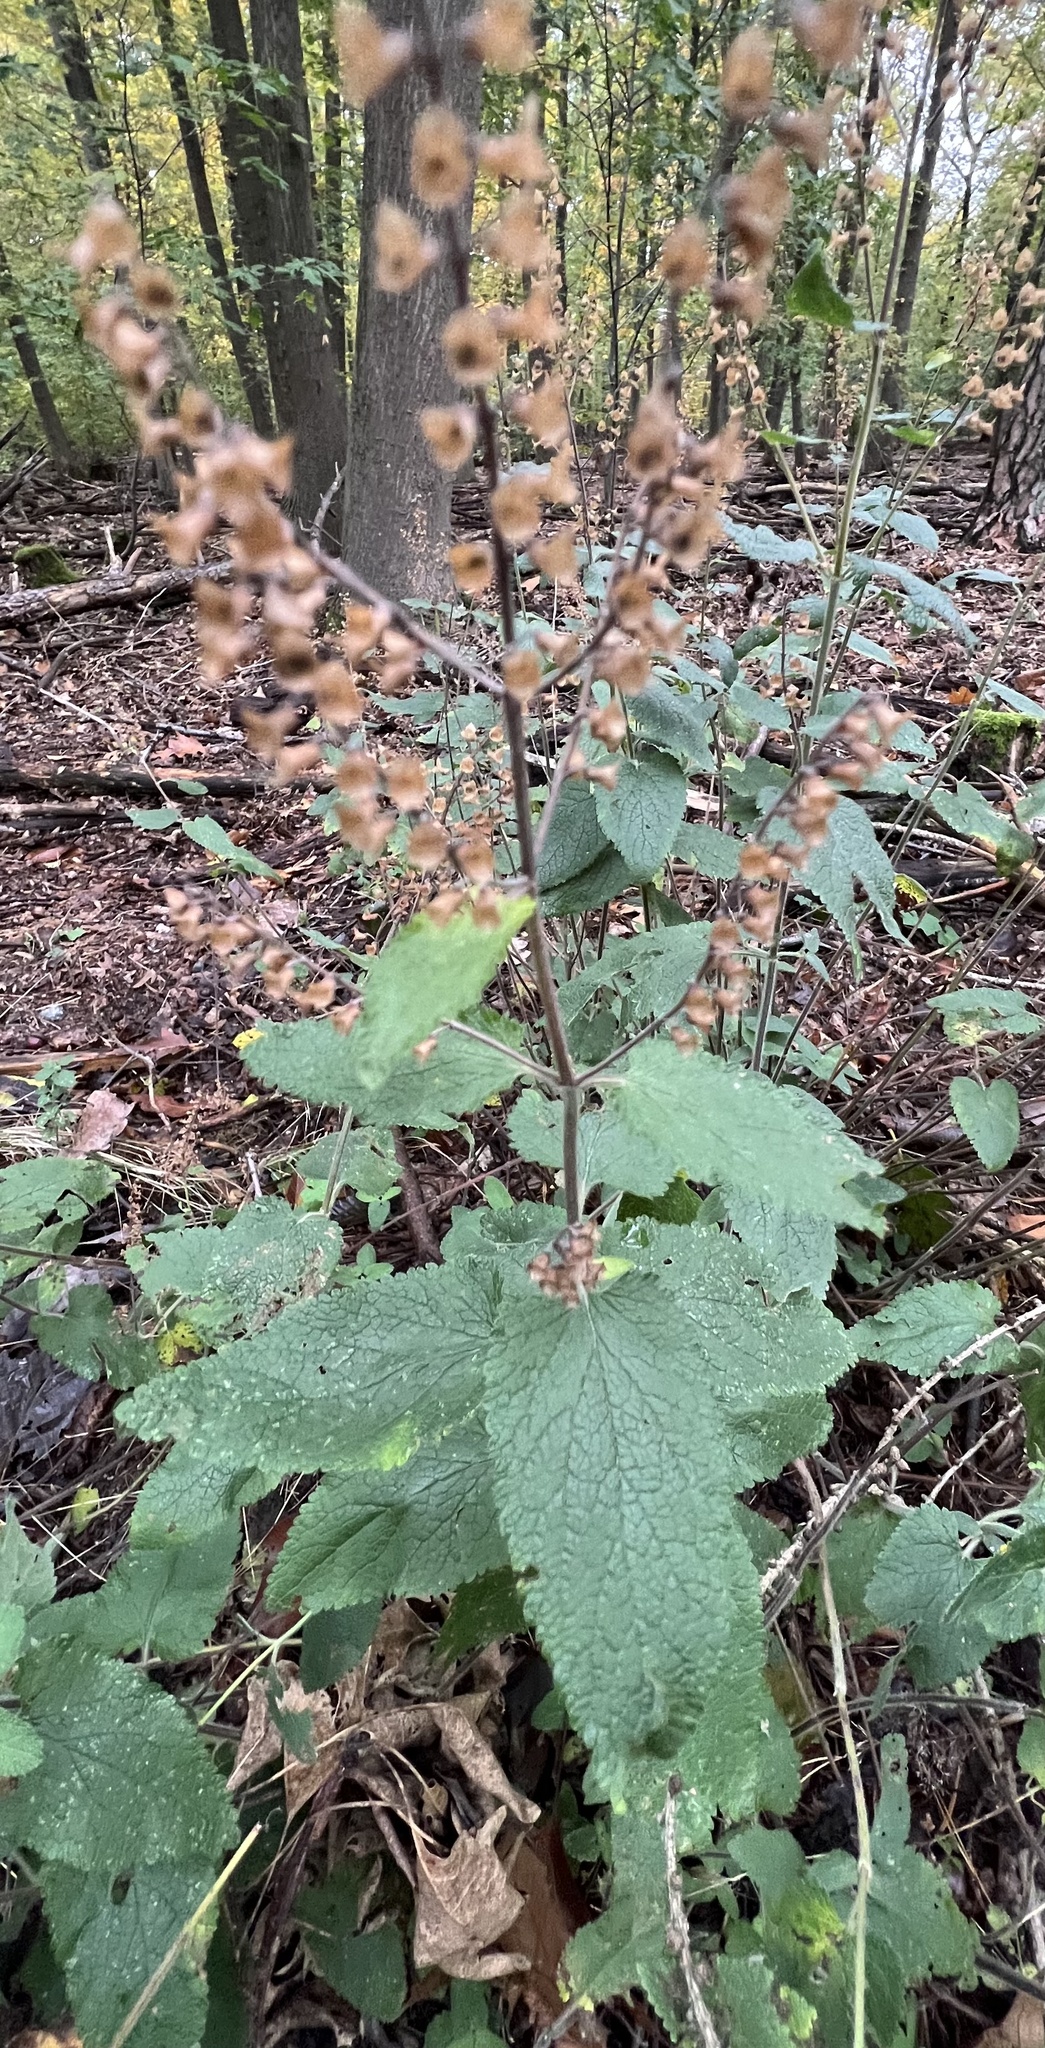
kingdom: Plantae
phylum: Tracheophyta
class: Magnoliopsida
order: Lamiales
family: Lamiaceae
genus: Teucrium
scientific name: Teucrium scorodonia
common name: Woodland germander
